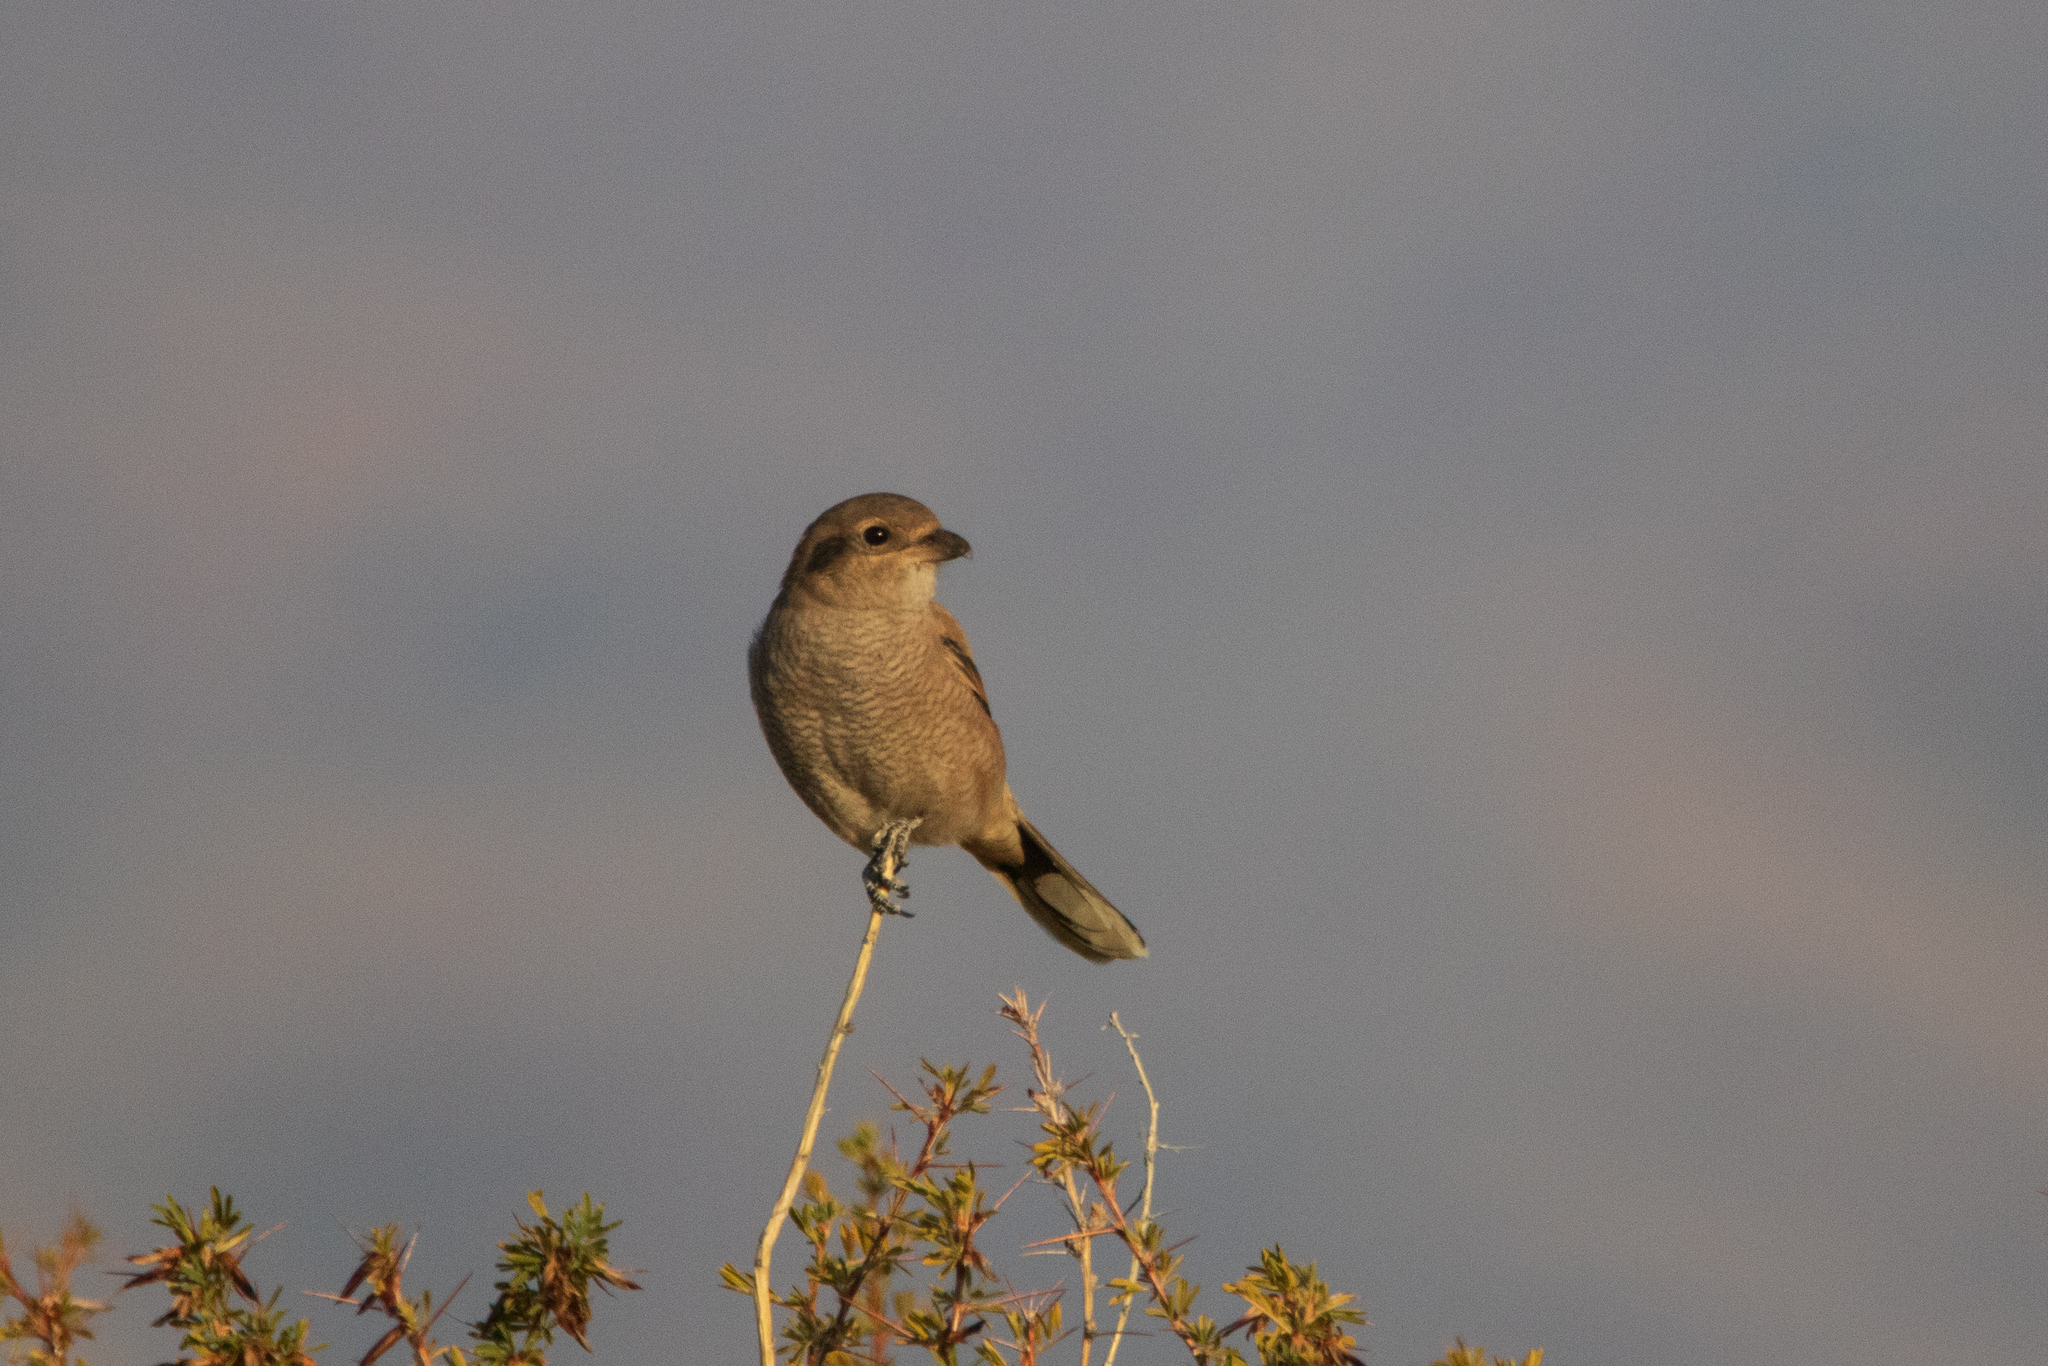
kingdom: Animalia
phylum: Chordata
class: Aves
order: Passeriformes
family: Laniidae
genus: Lanius
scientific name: Lanius borealis
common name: Northern shrike
